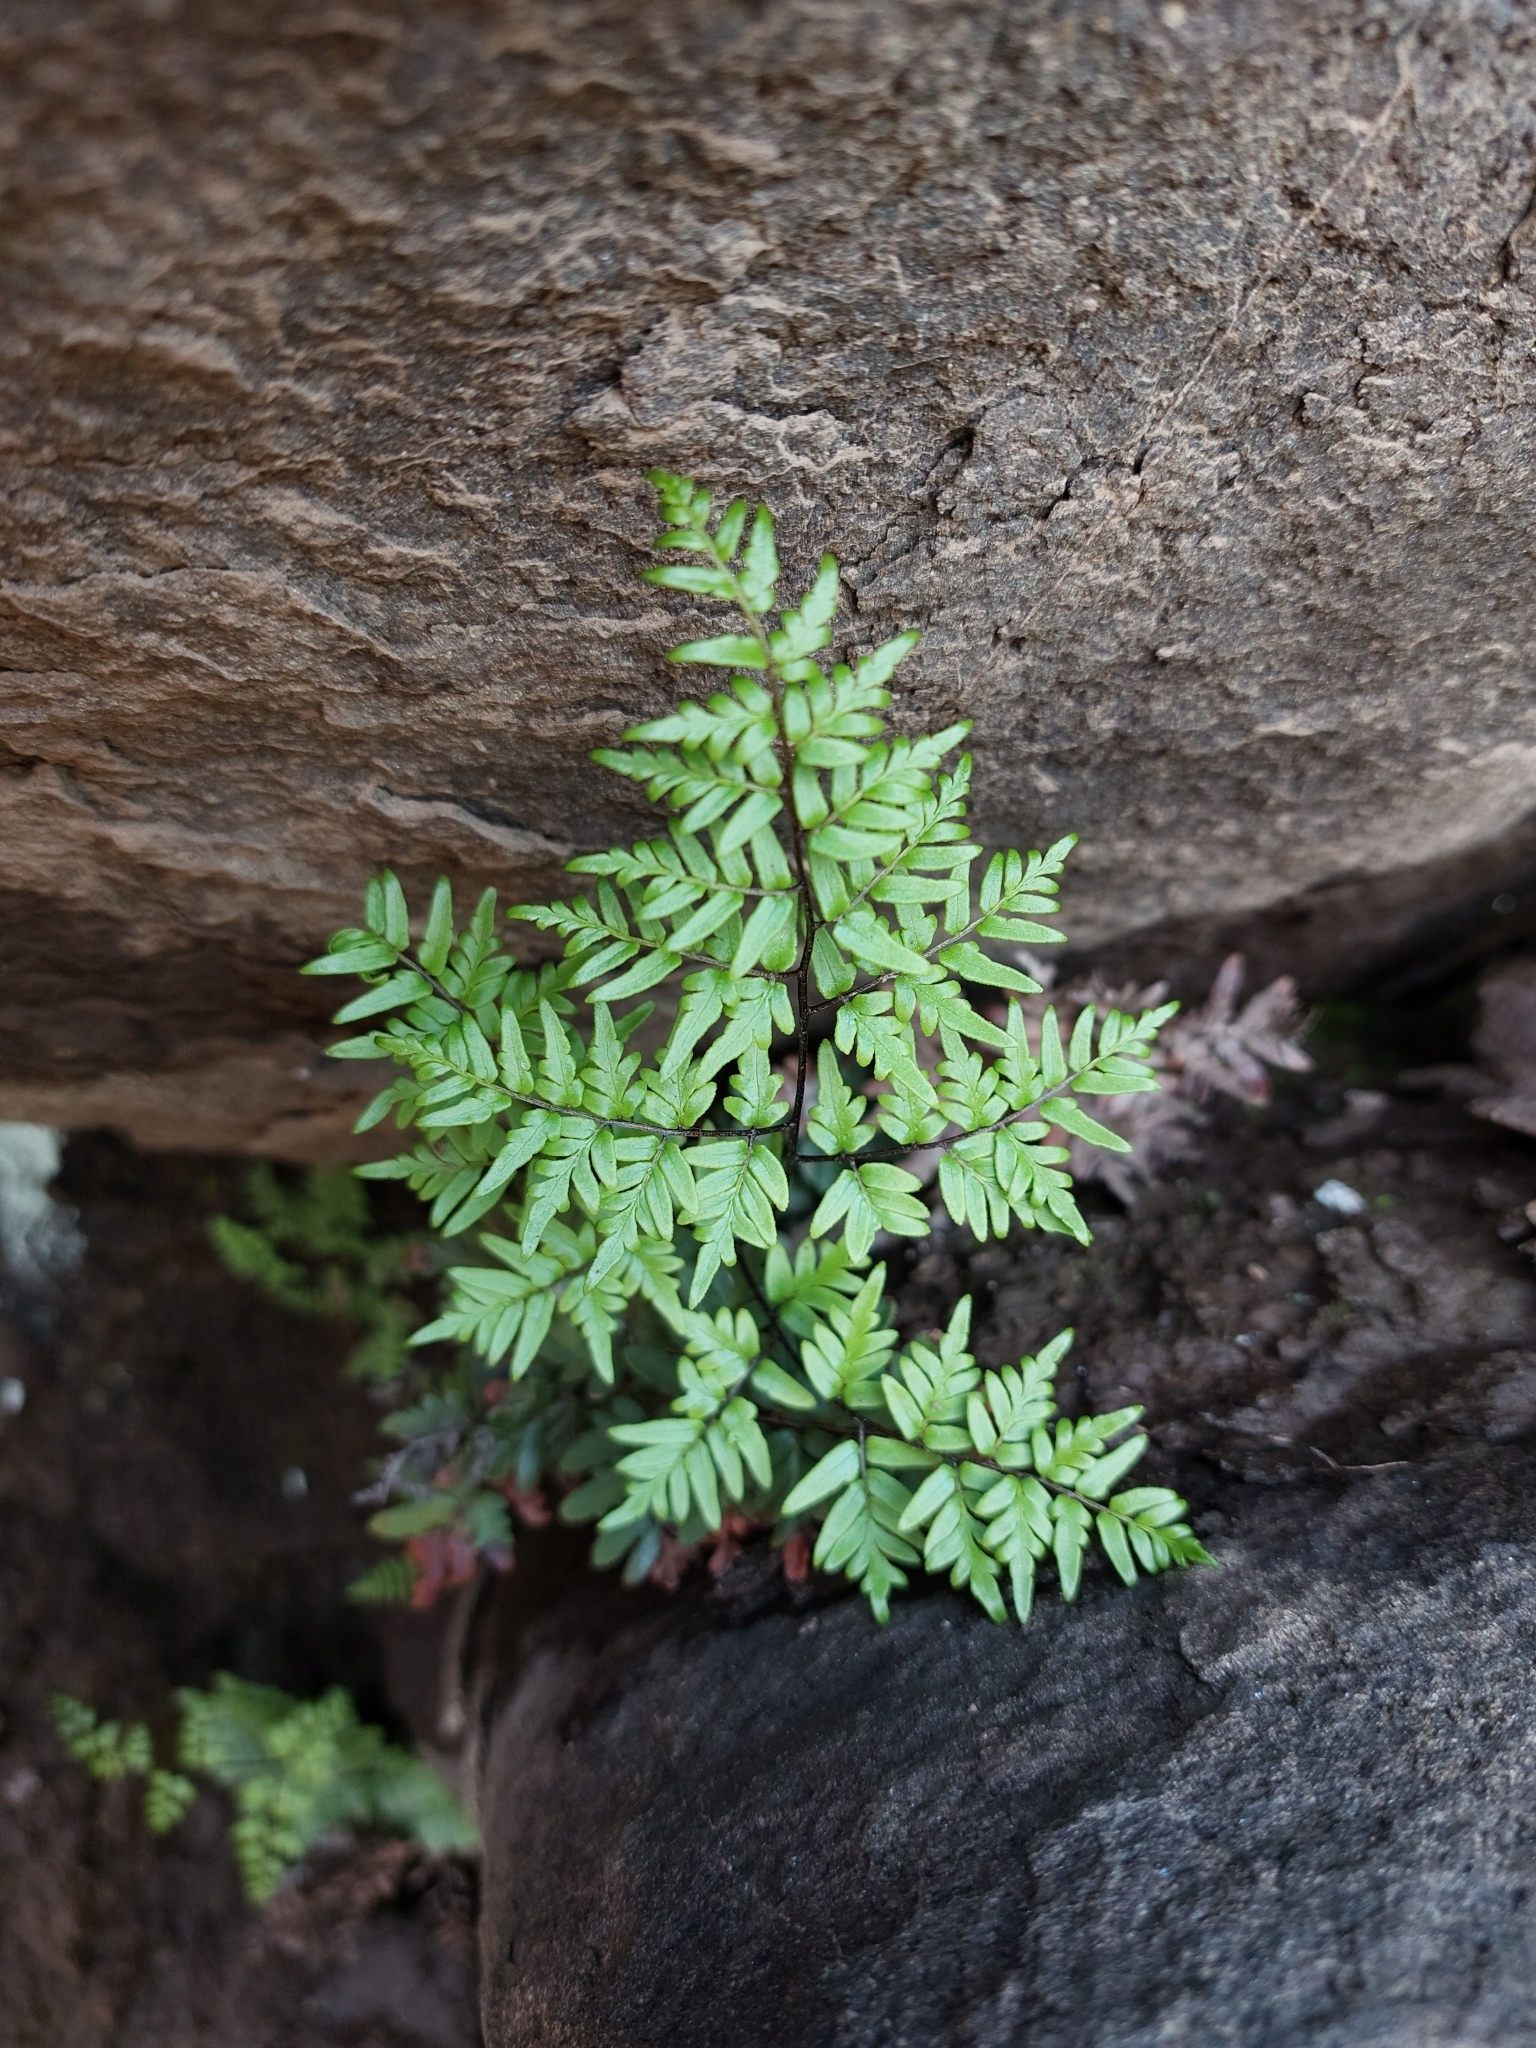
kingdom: Plantae
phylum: Tracheophyta
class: Polypodiopsida
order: Polypodiales
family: Pteridaceae
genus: Cheilanthes
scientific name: Cheilanthes quadripinnata
